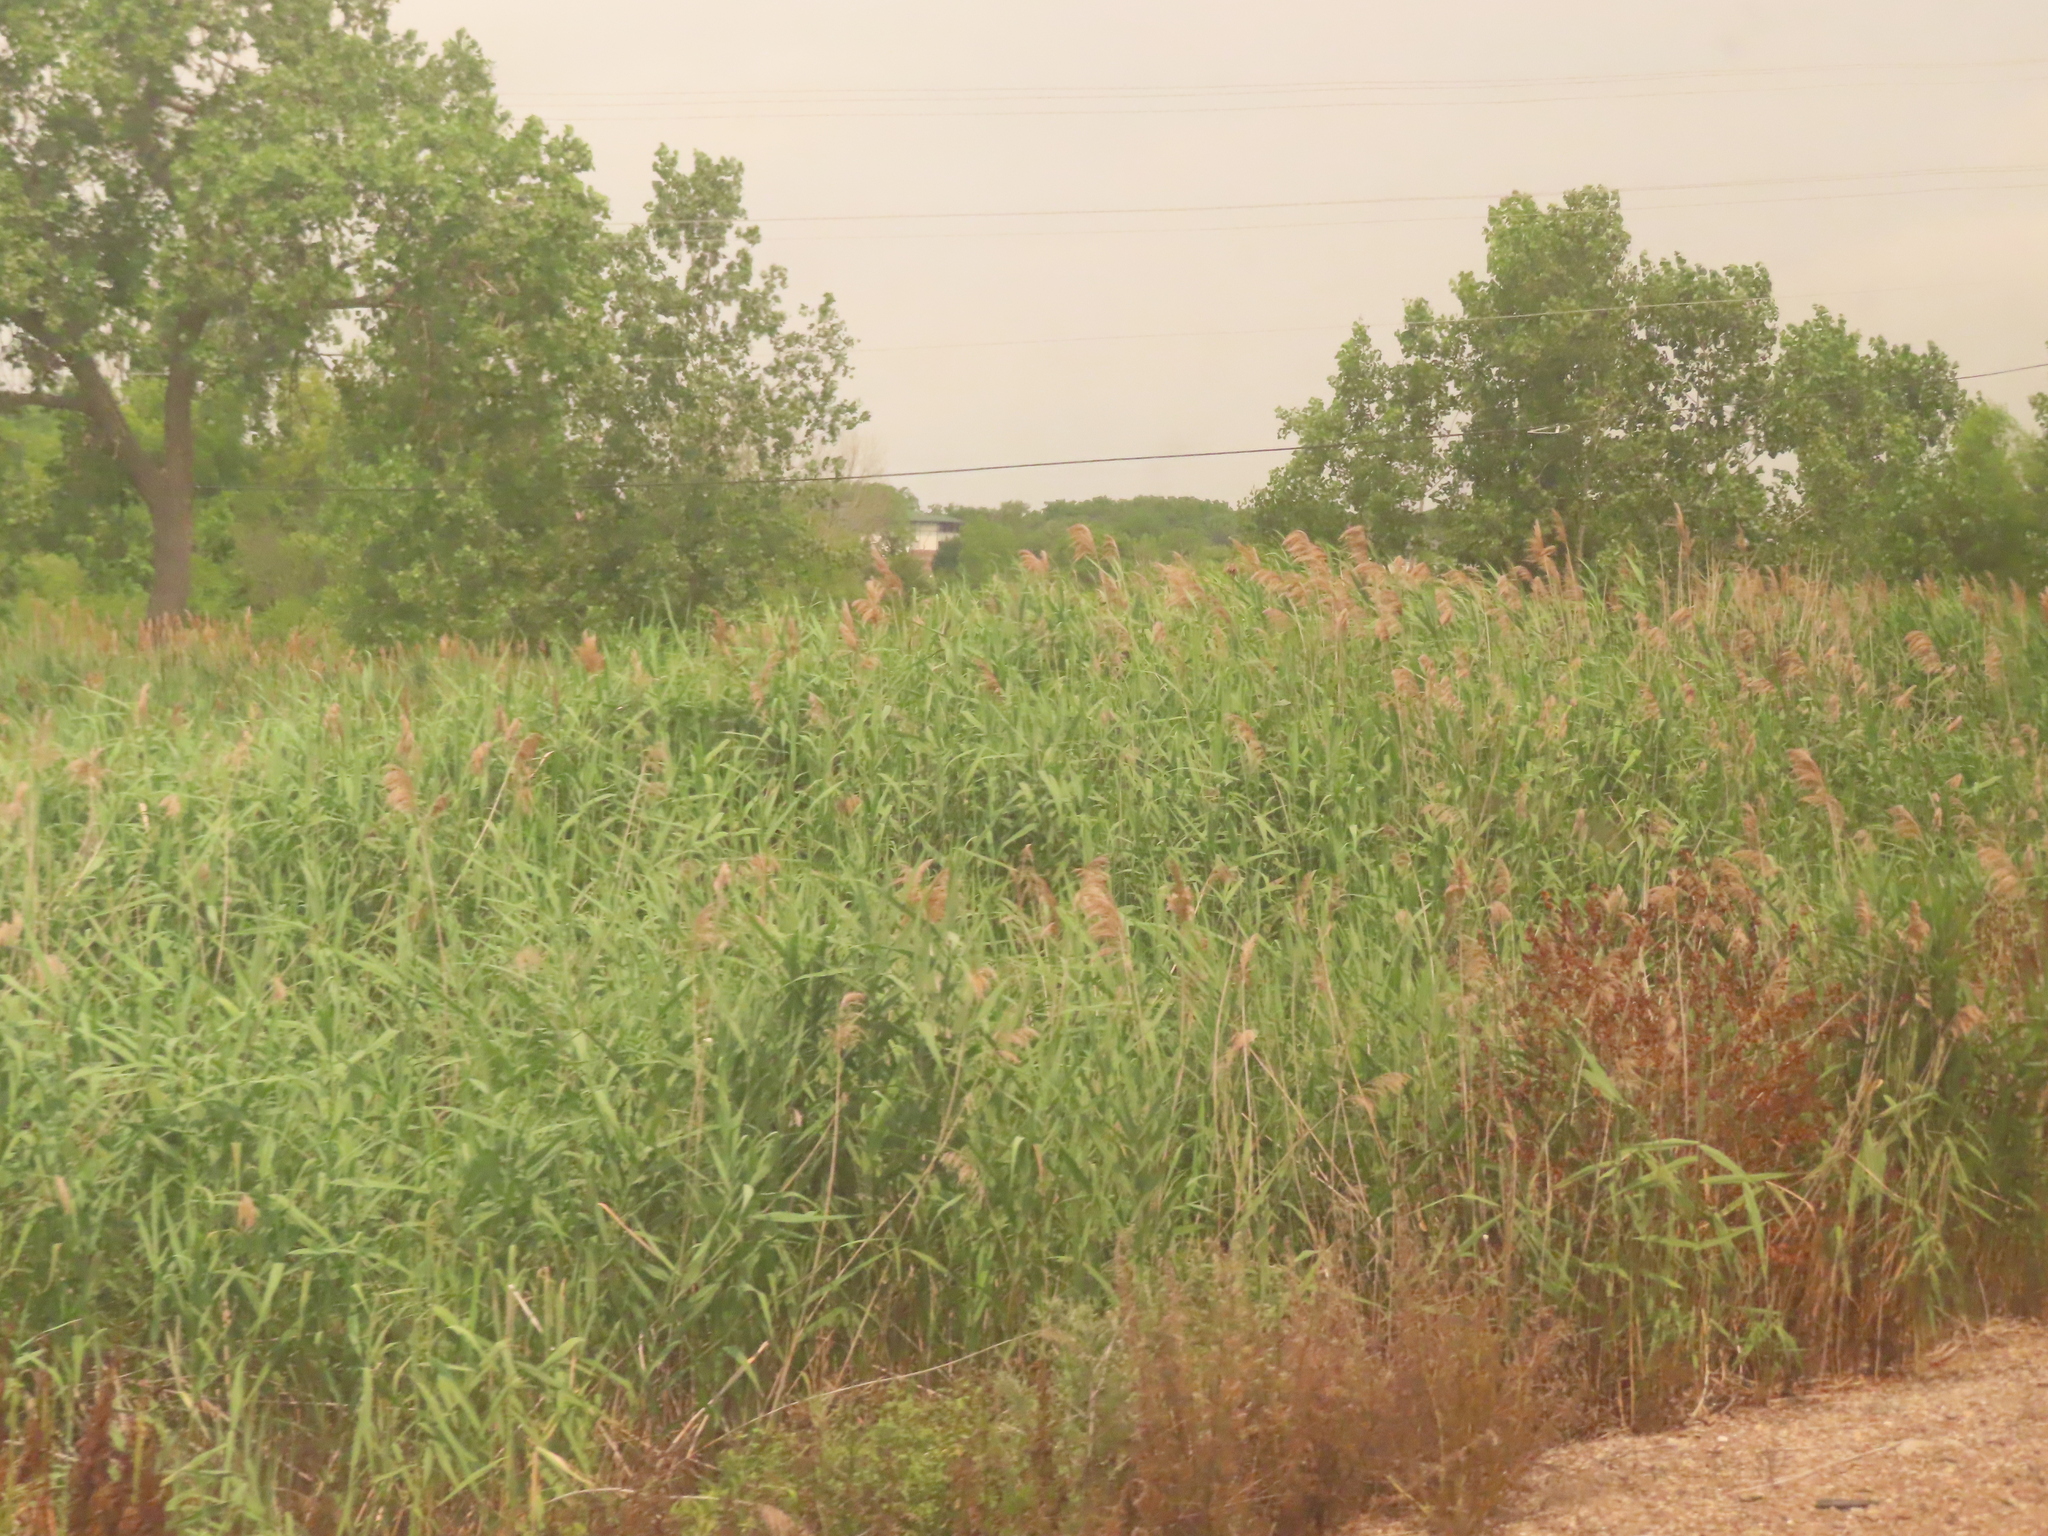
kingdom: Plantae
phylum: Tracheophyta
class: Liliopsida
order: Poales
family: Poaceae
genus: Phragmites
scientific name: Phragmites australis
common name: Common reed
